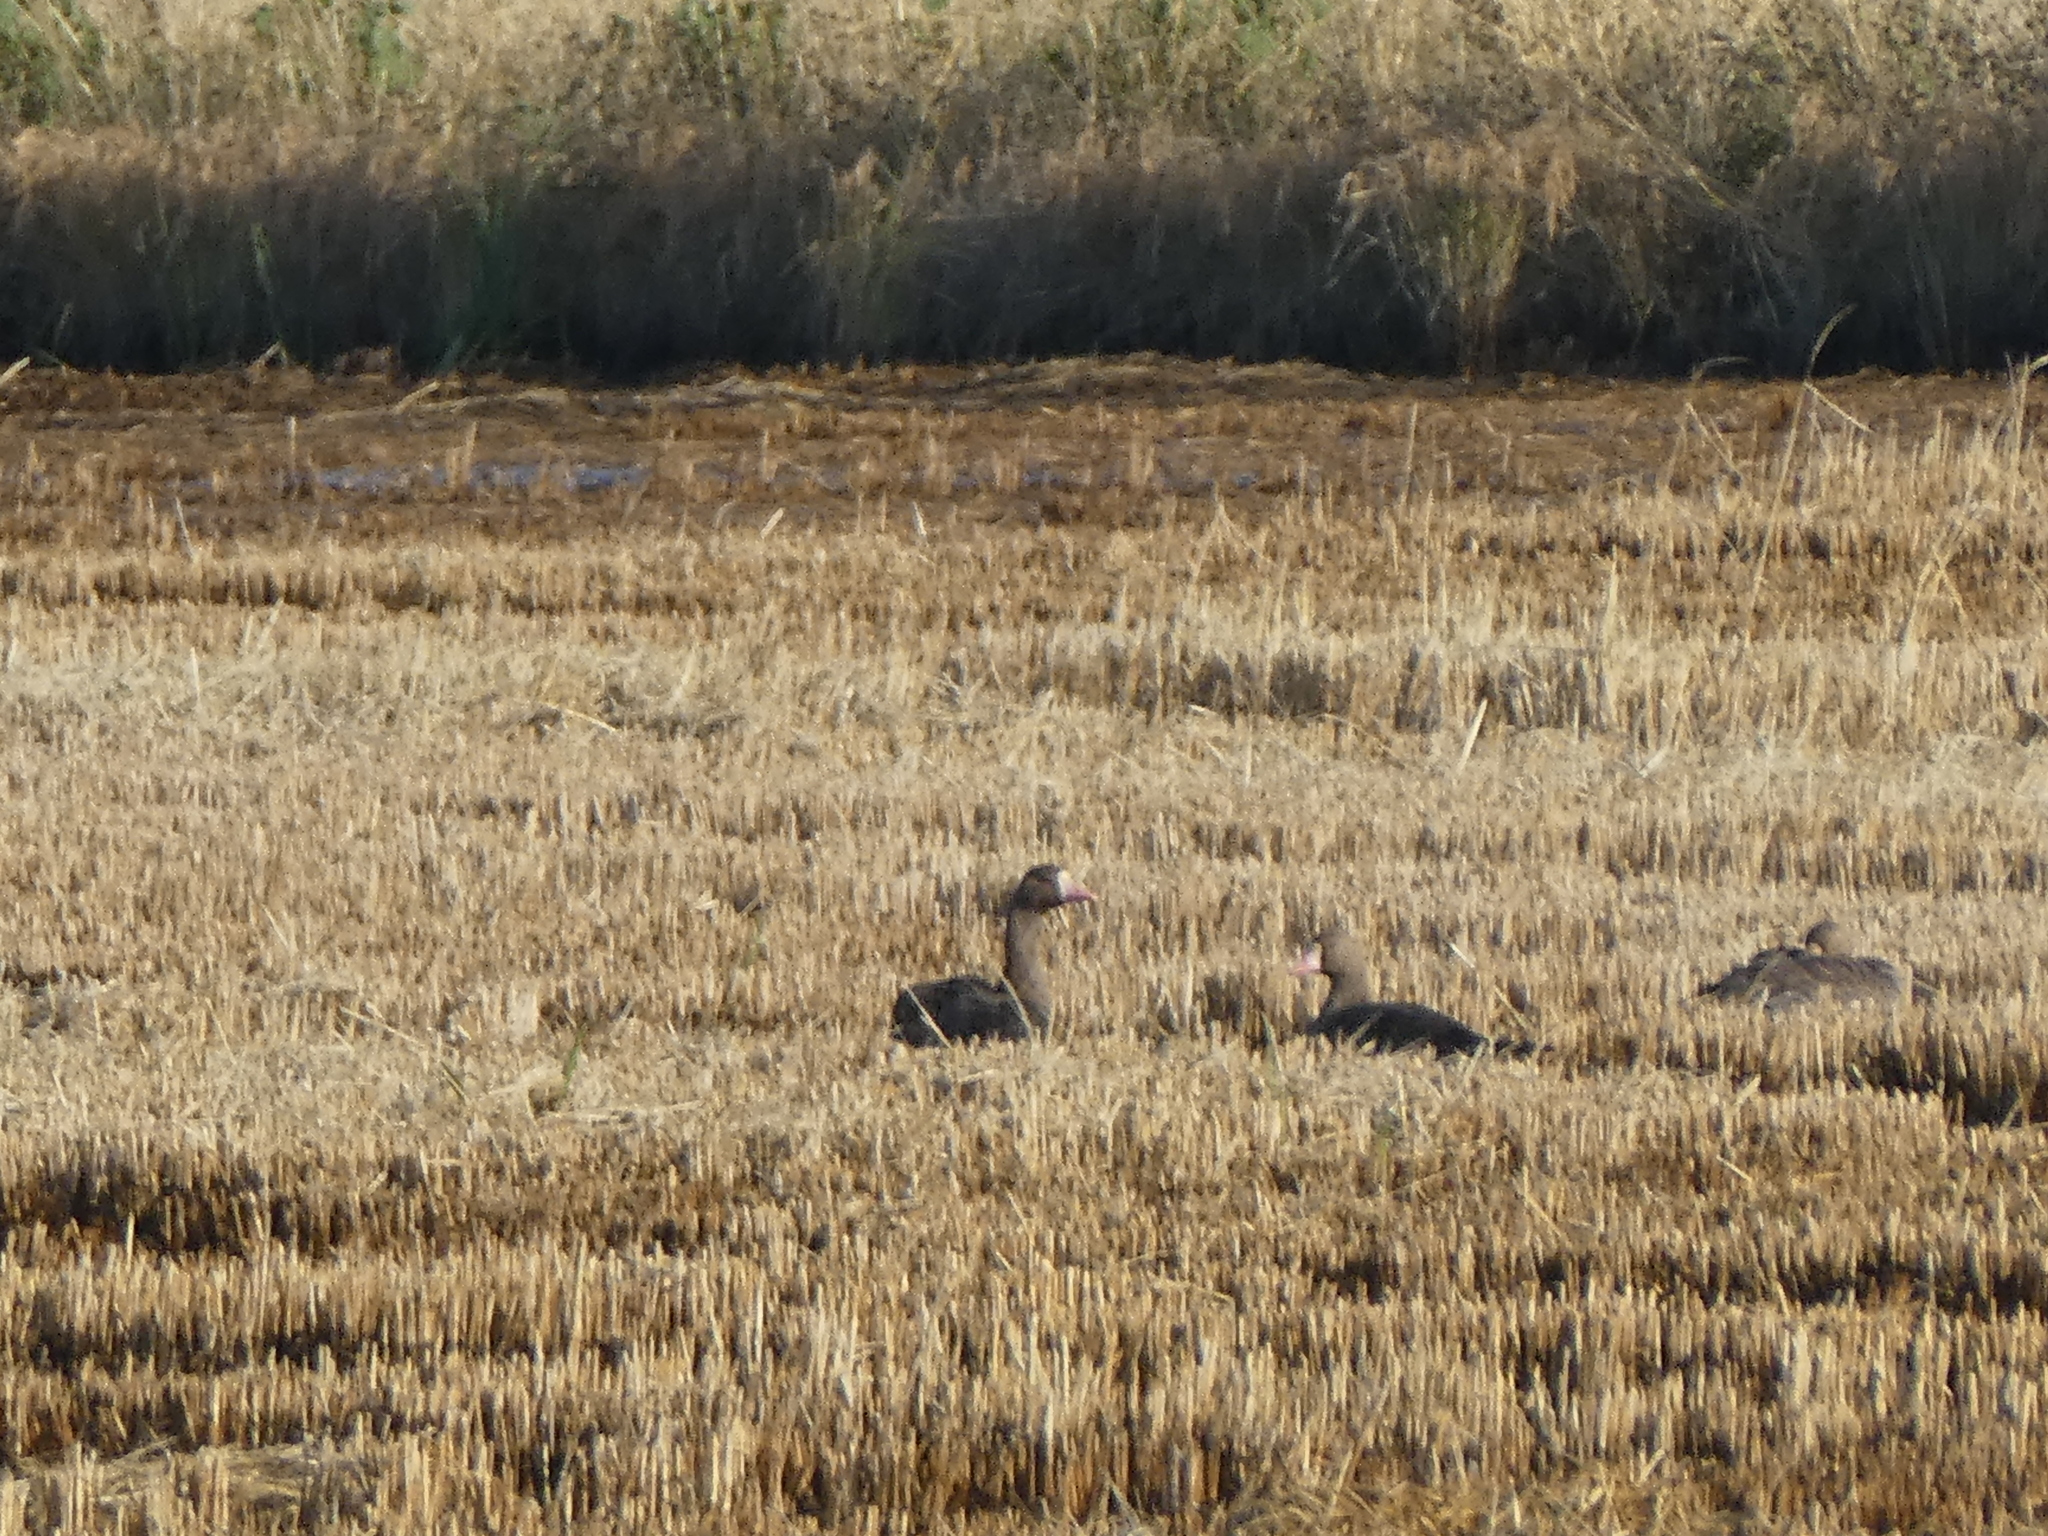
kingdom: Animalia
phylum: Chordata
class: Aves
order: Anseriformes
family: Anatidae
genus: Anser
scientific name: Anser albifrons
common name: Greater white-fronted goose
